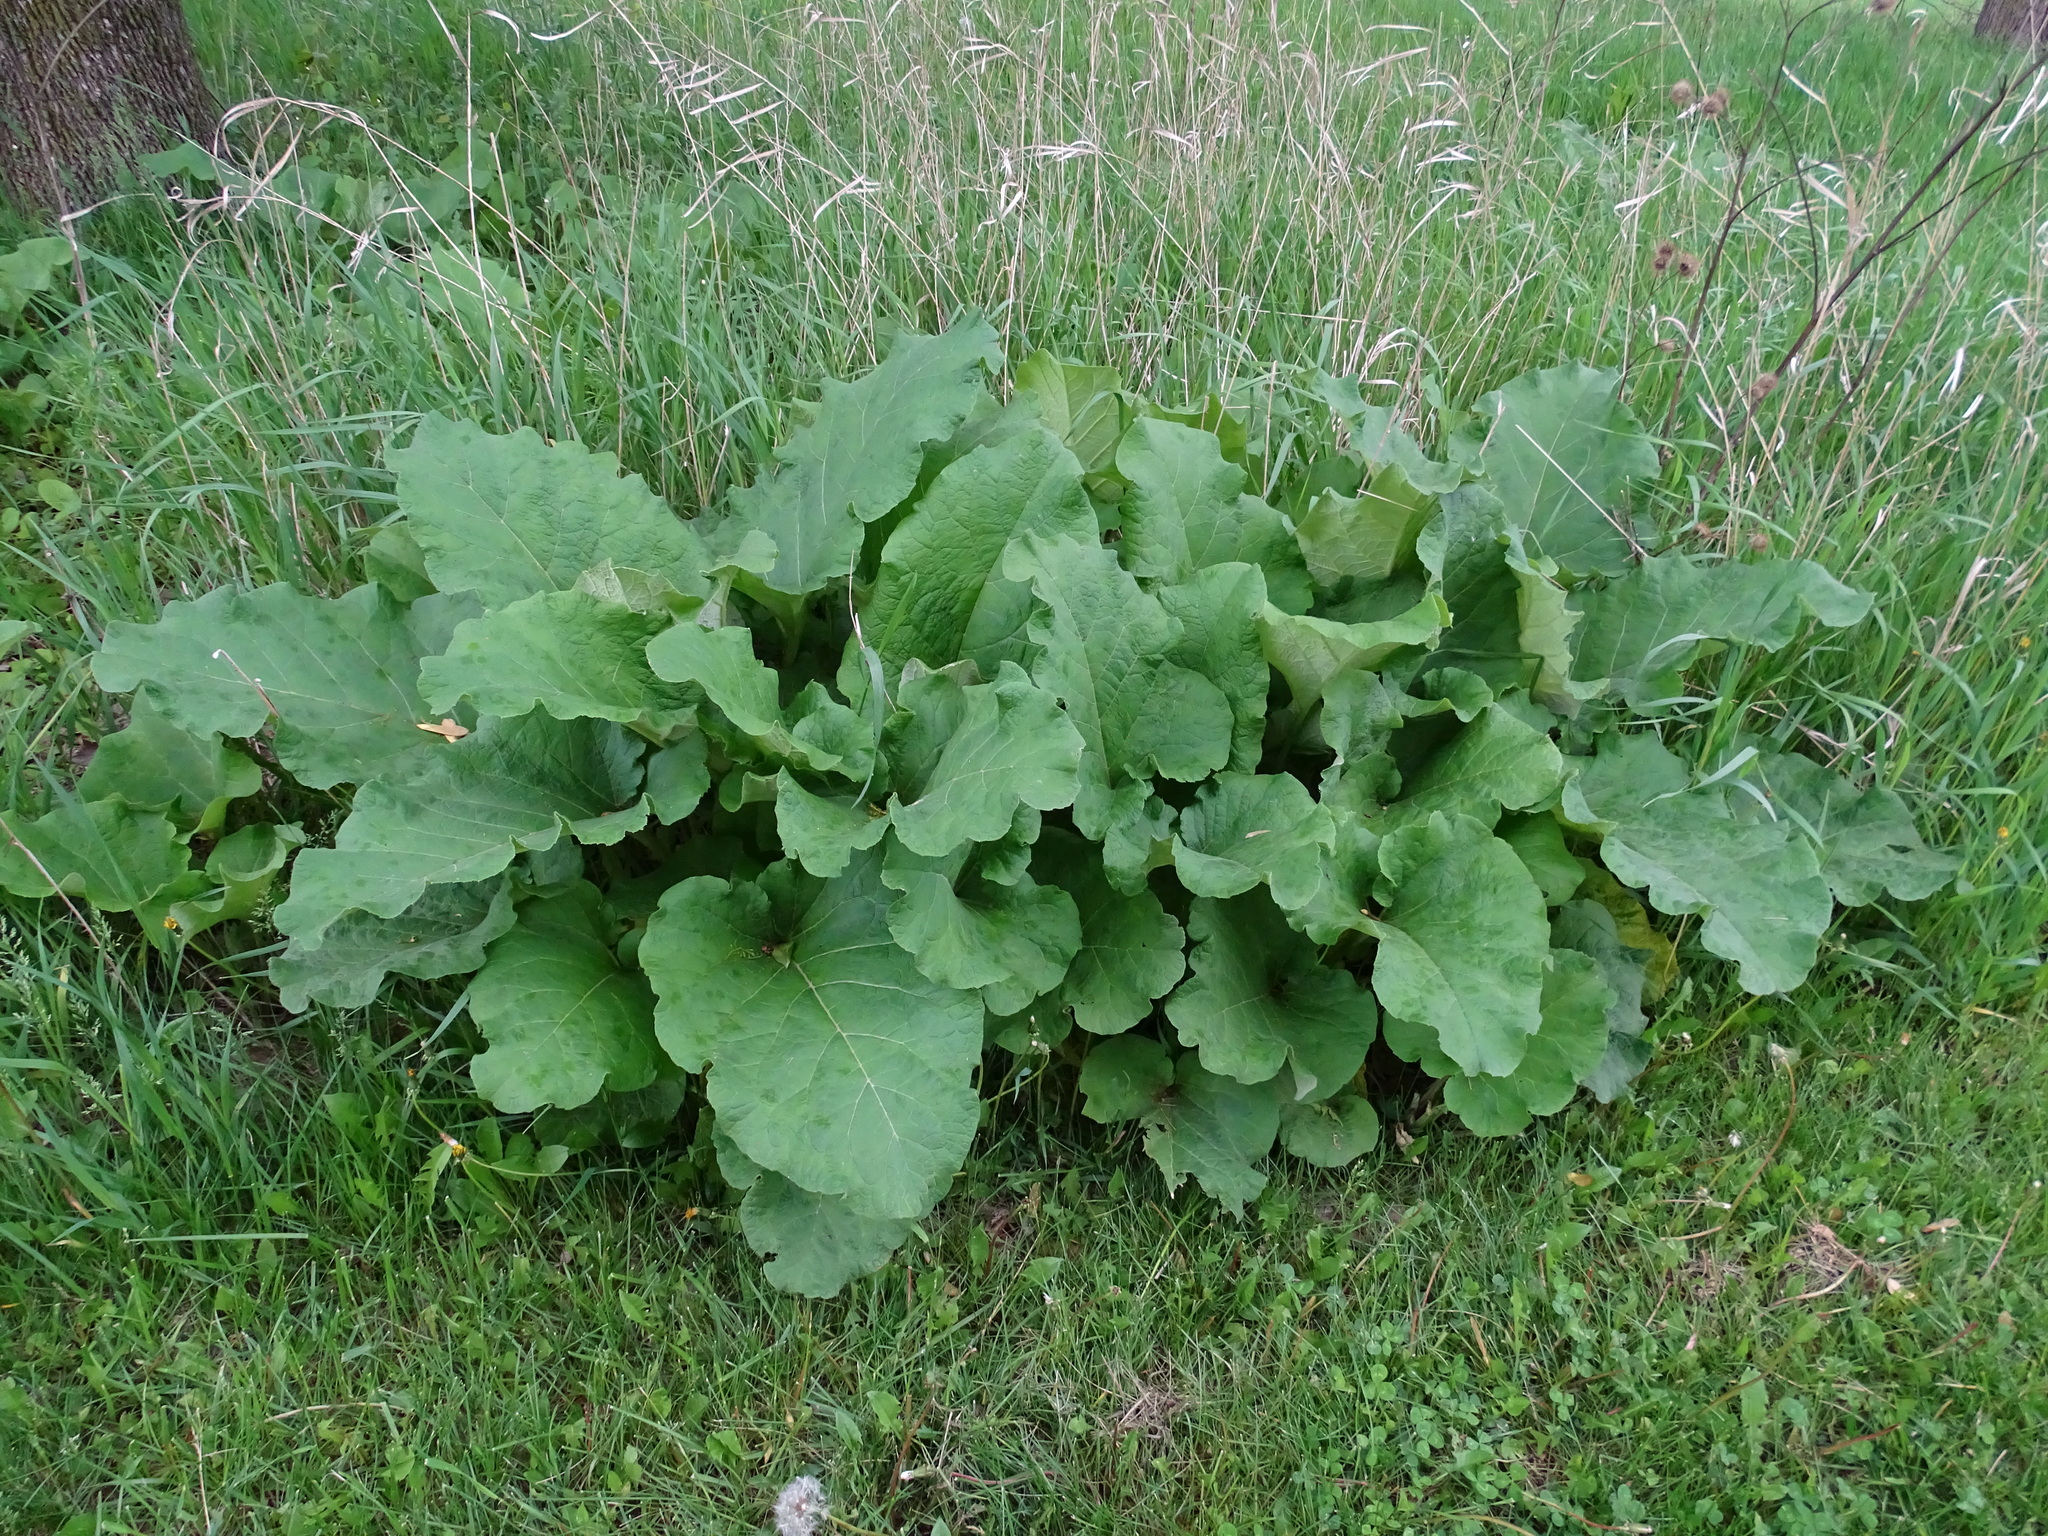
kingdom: Plantae
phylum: Tracheophyta
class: Magnoliopsida
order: Asterales
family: Asteraceae
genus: Arctium
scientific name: Arctium minus
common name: Lesser burdock
